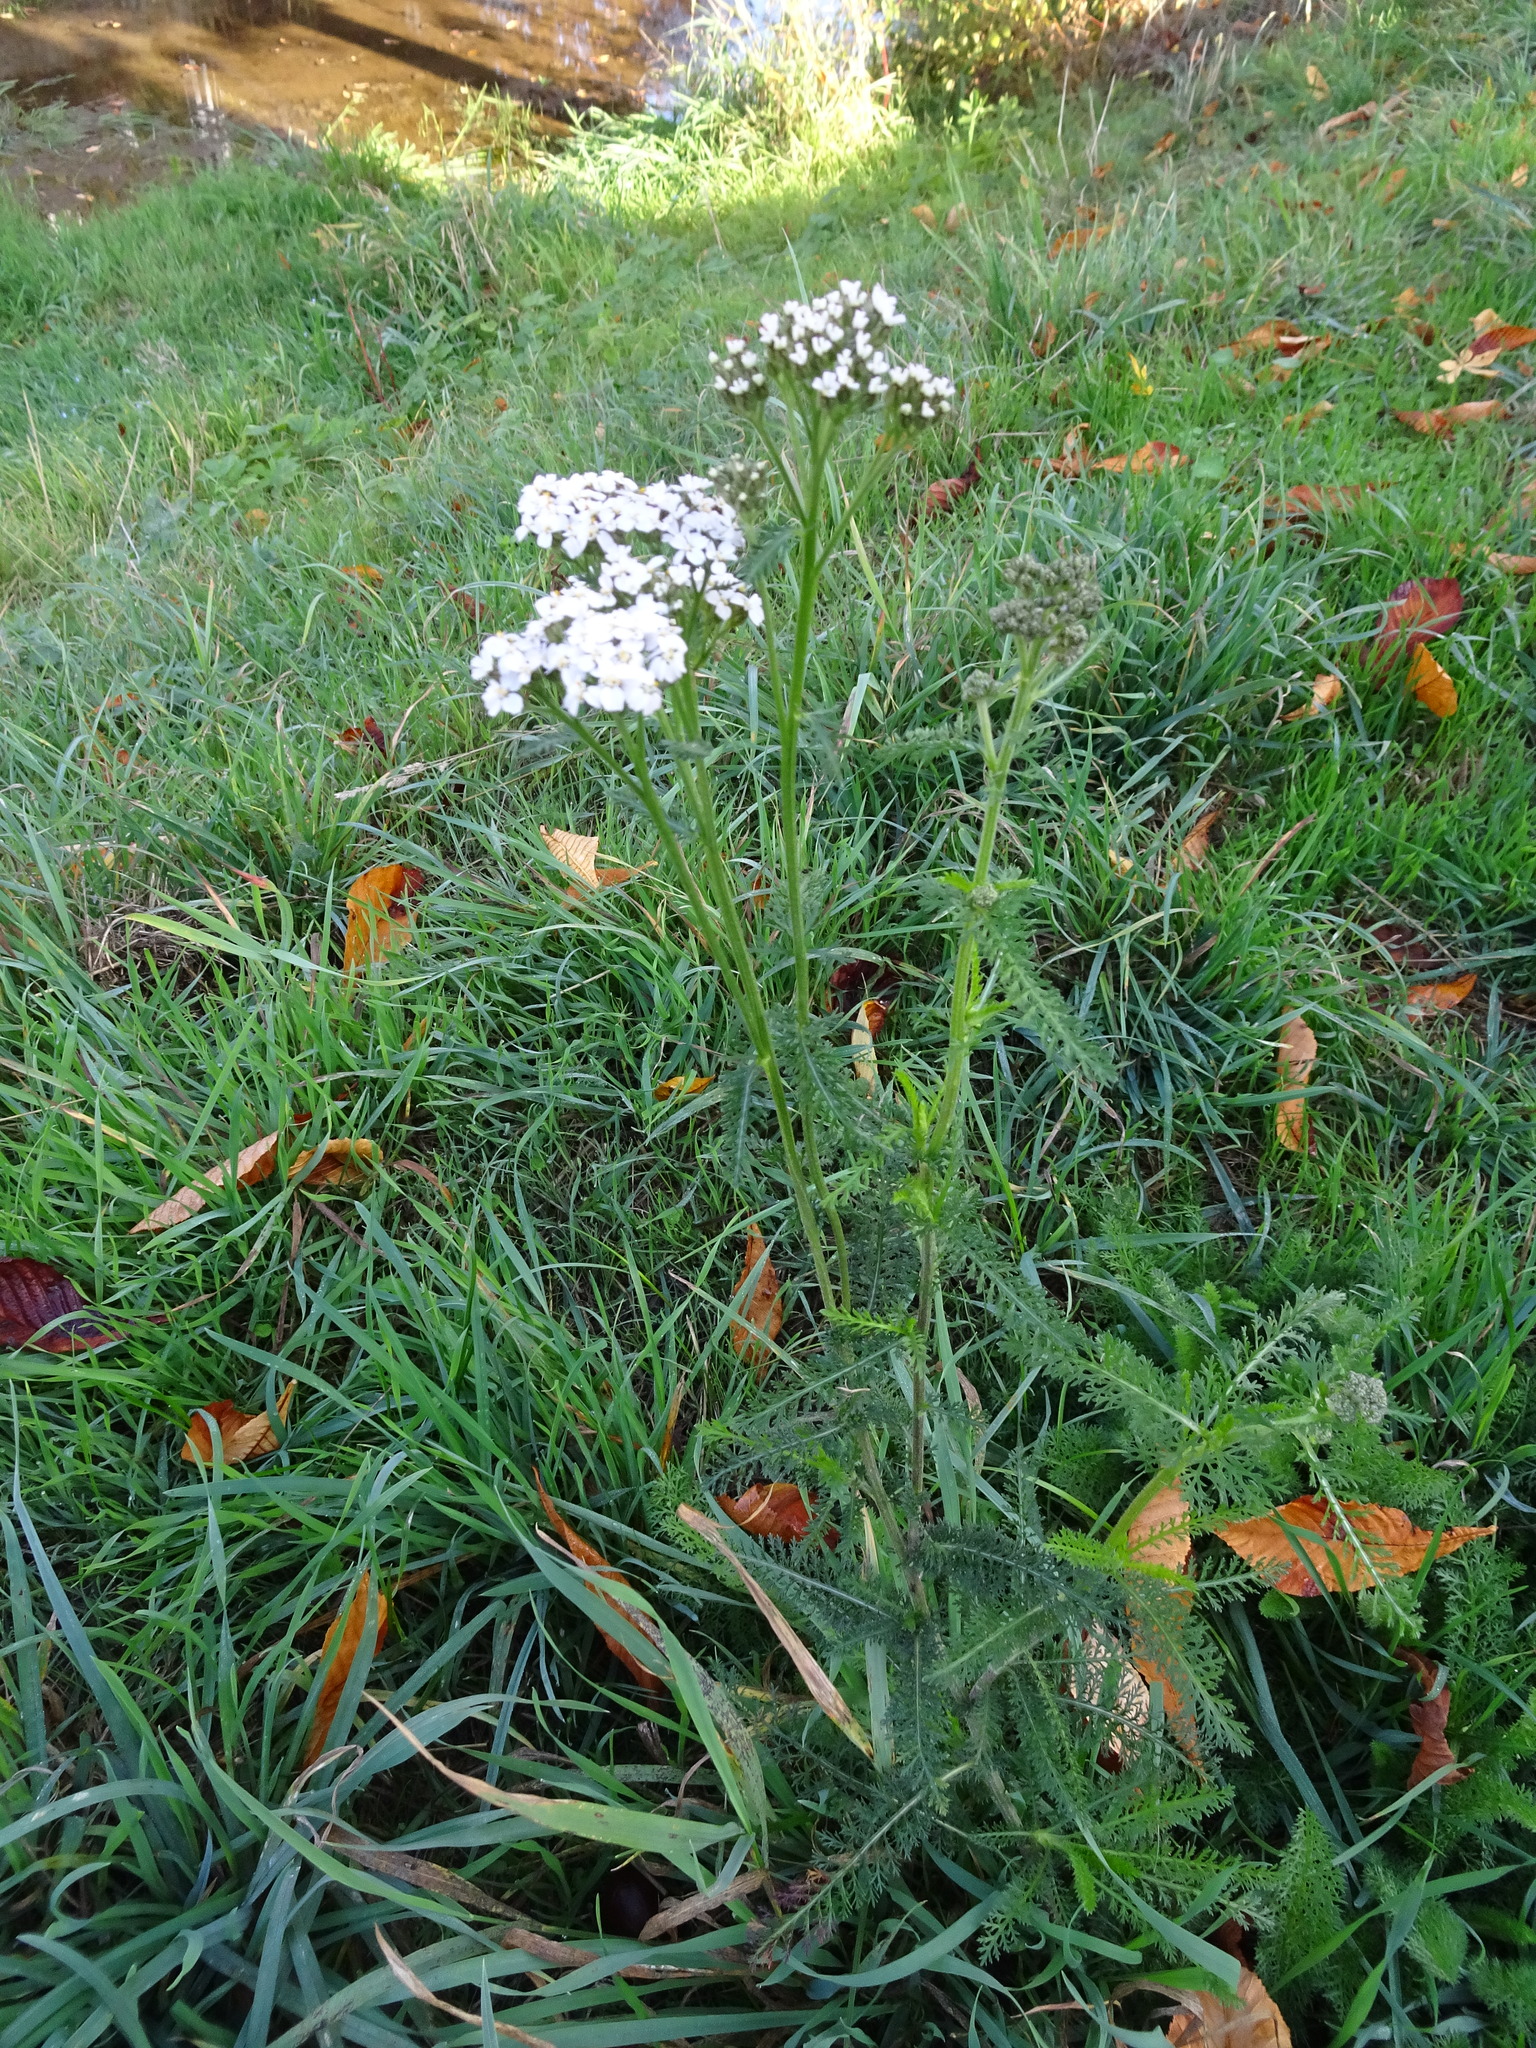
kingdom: Plantae
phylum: Tracheophyta
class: Magnoliopsida
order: Asterales
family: Asteraceae
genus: Achillea
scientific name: Achillea millefolium
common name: Yarrow
